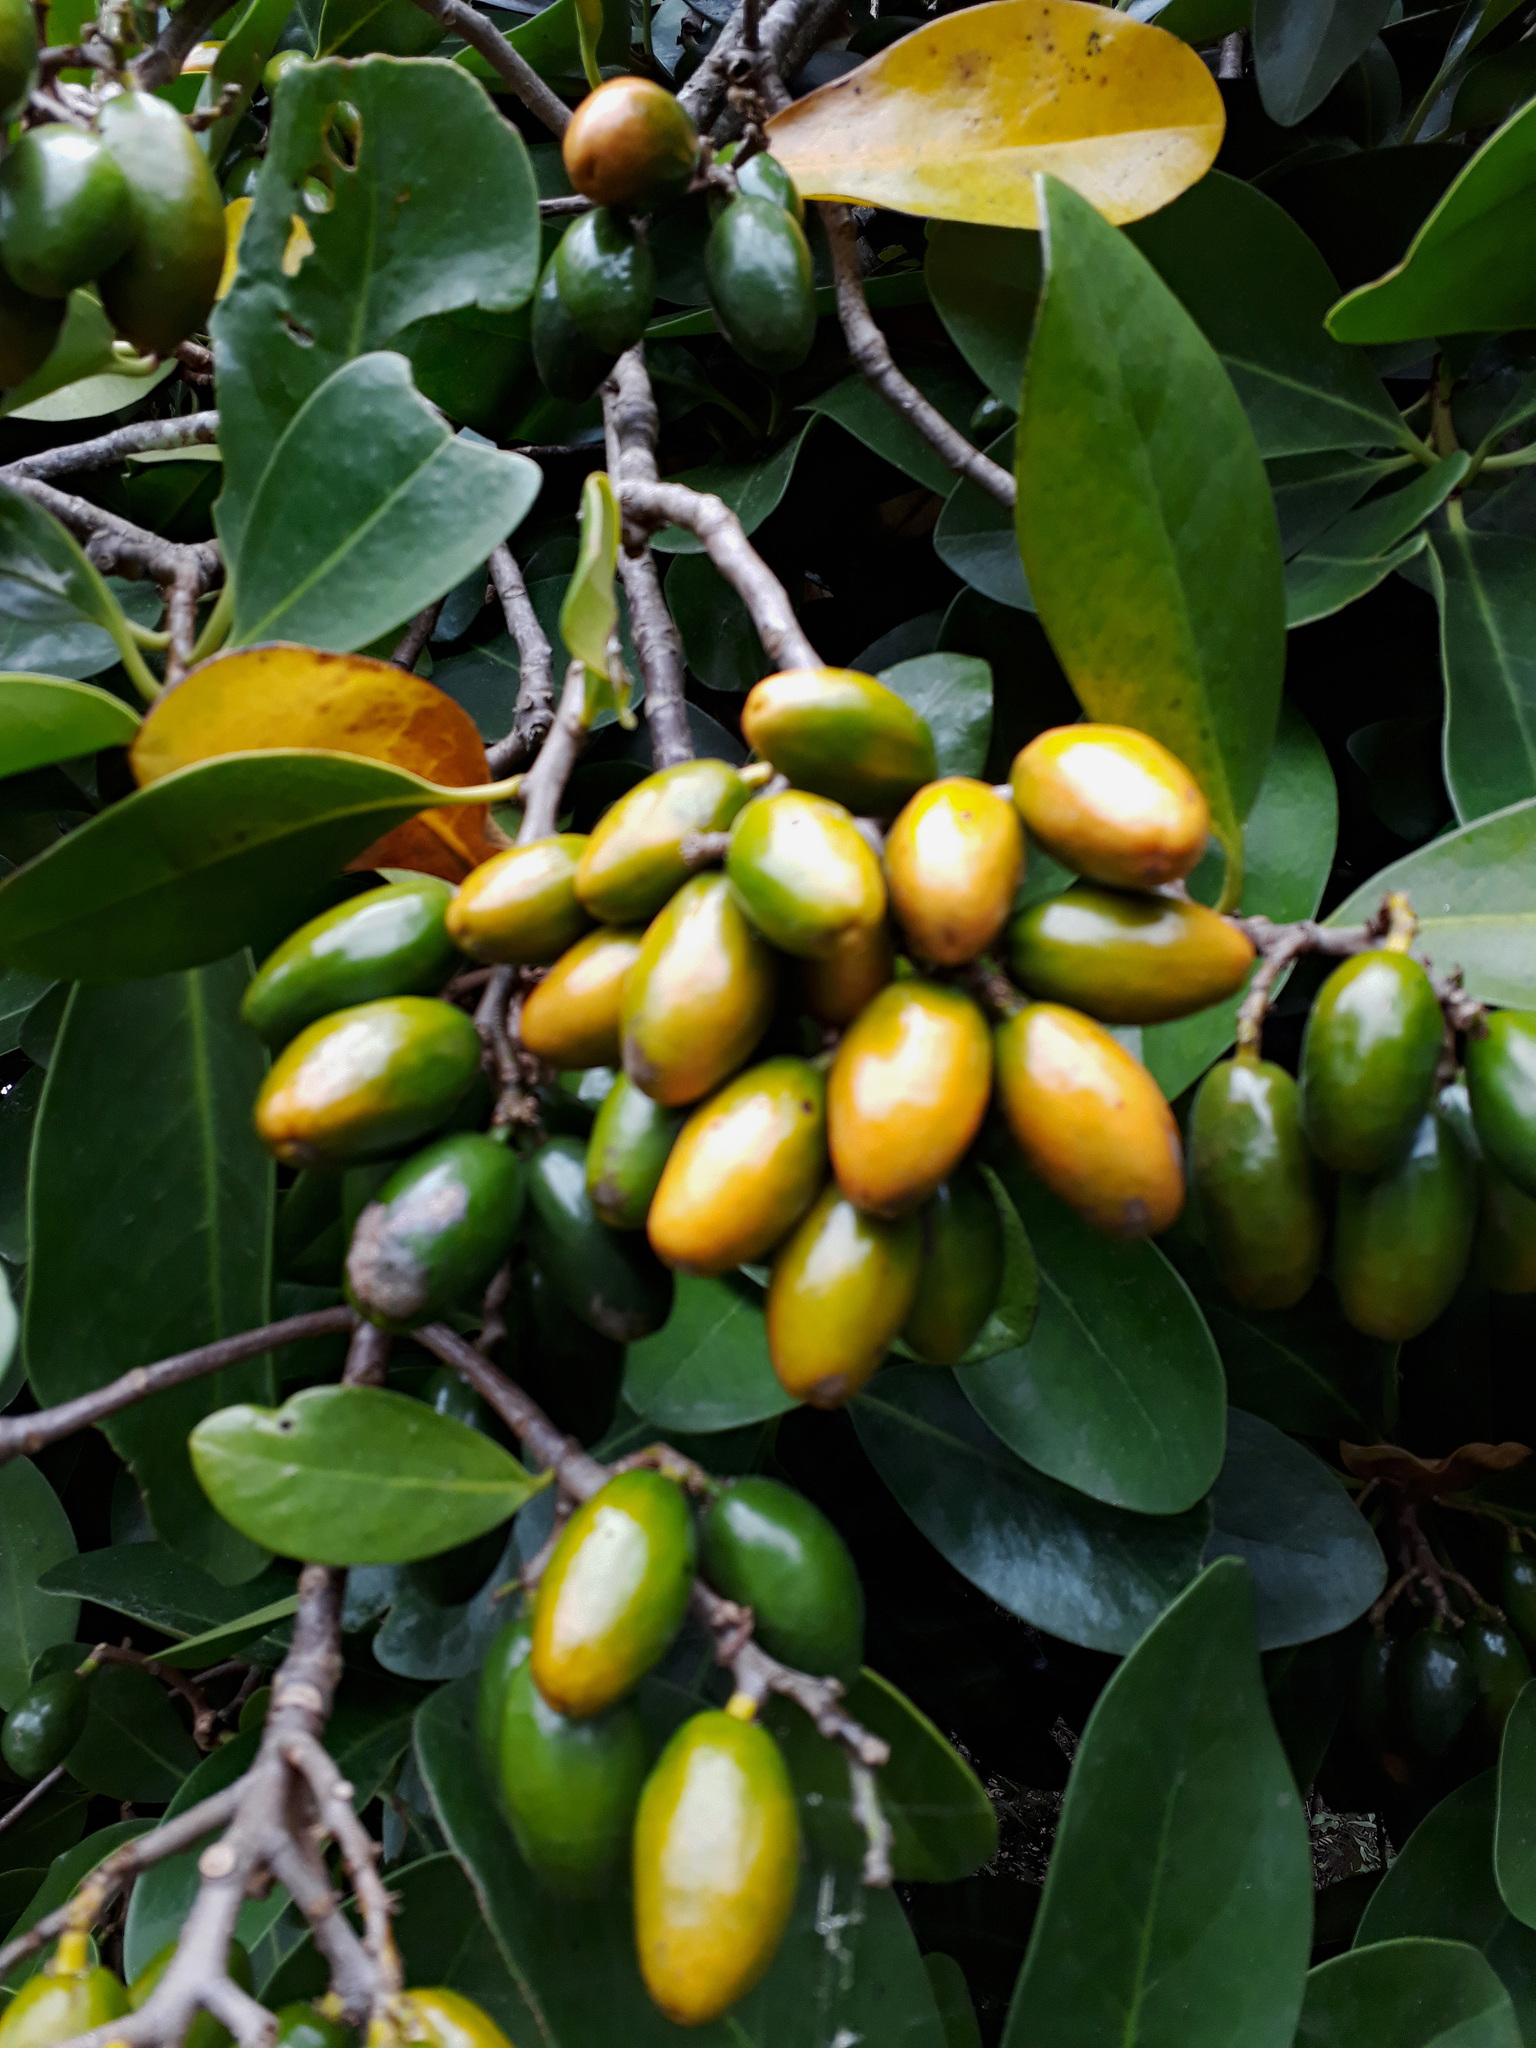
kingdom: Plantae
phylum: Tracheophyta
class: Magnoliopsida
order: Cucurbitales
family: Corynocarpaceae
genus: Corynocarpus
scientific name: Corynocarpus laevigatus
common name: New zealand laurel
